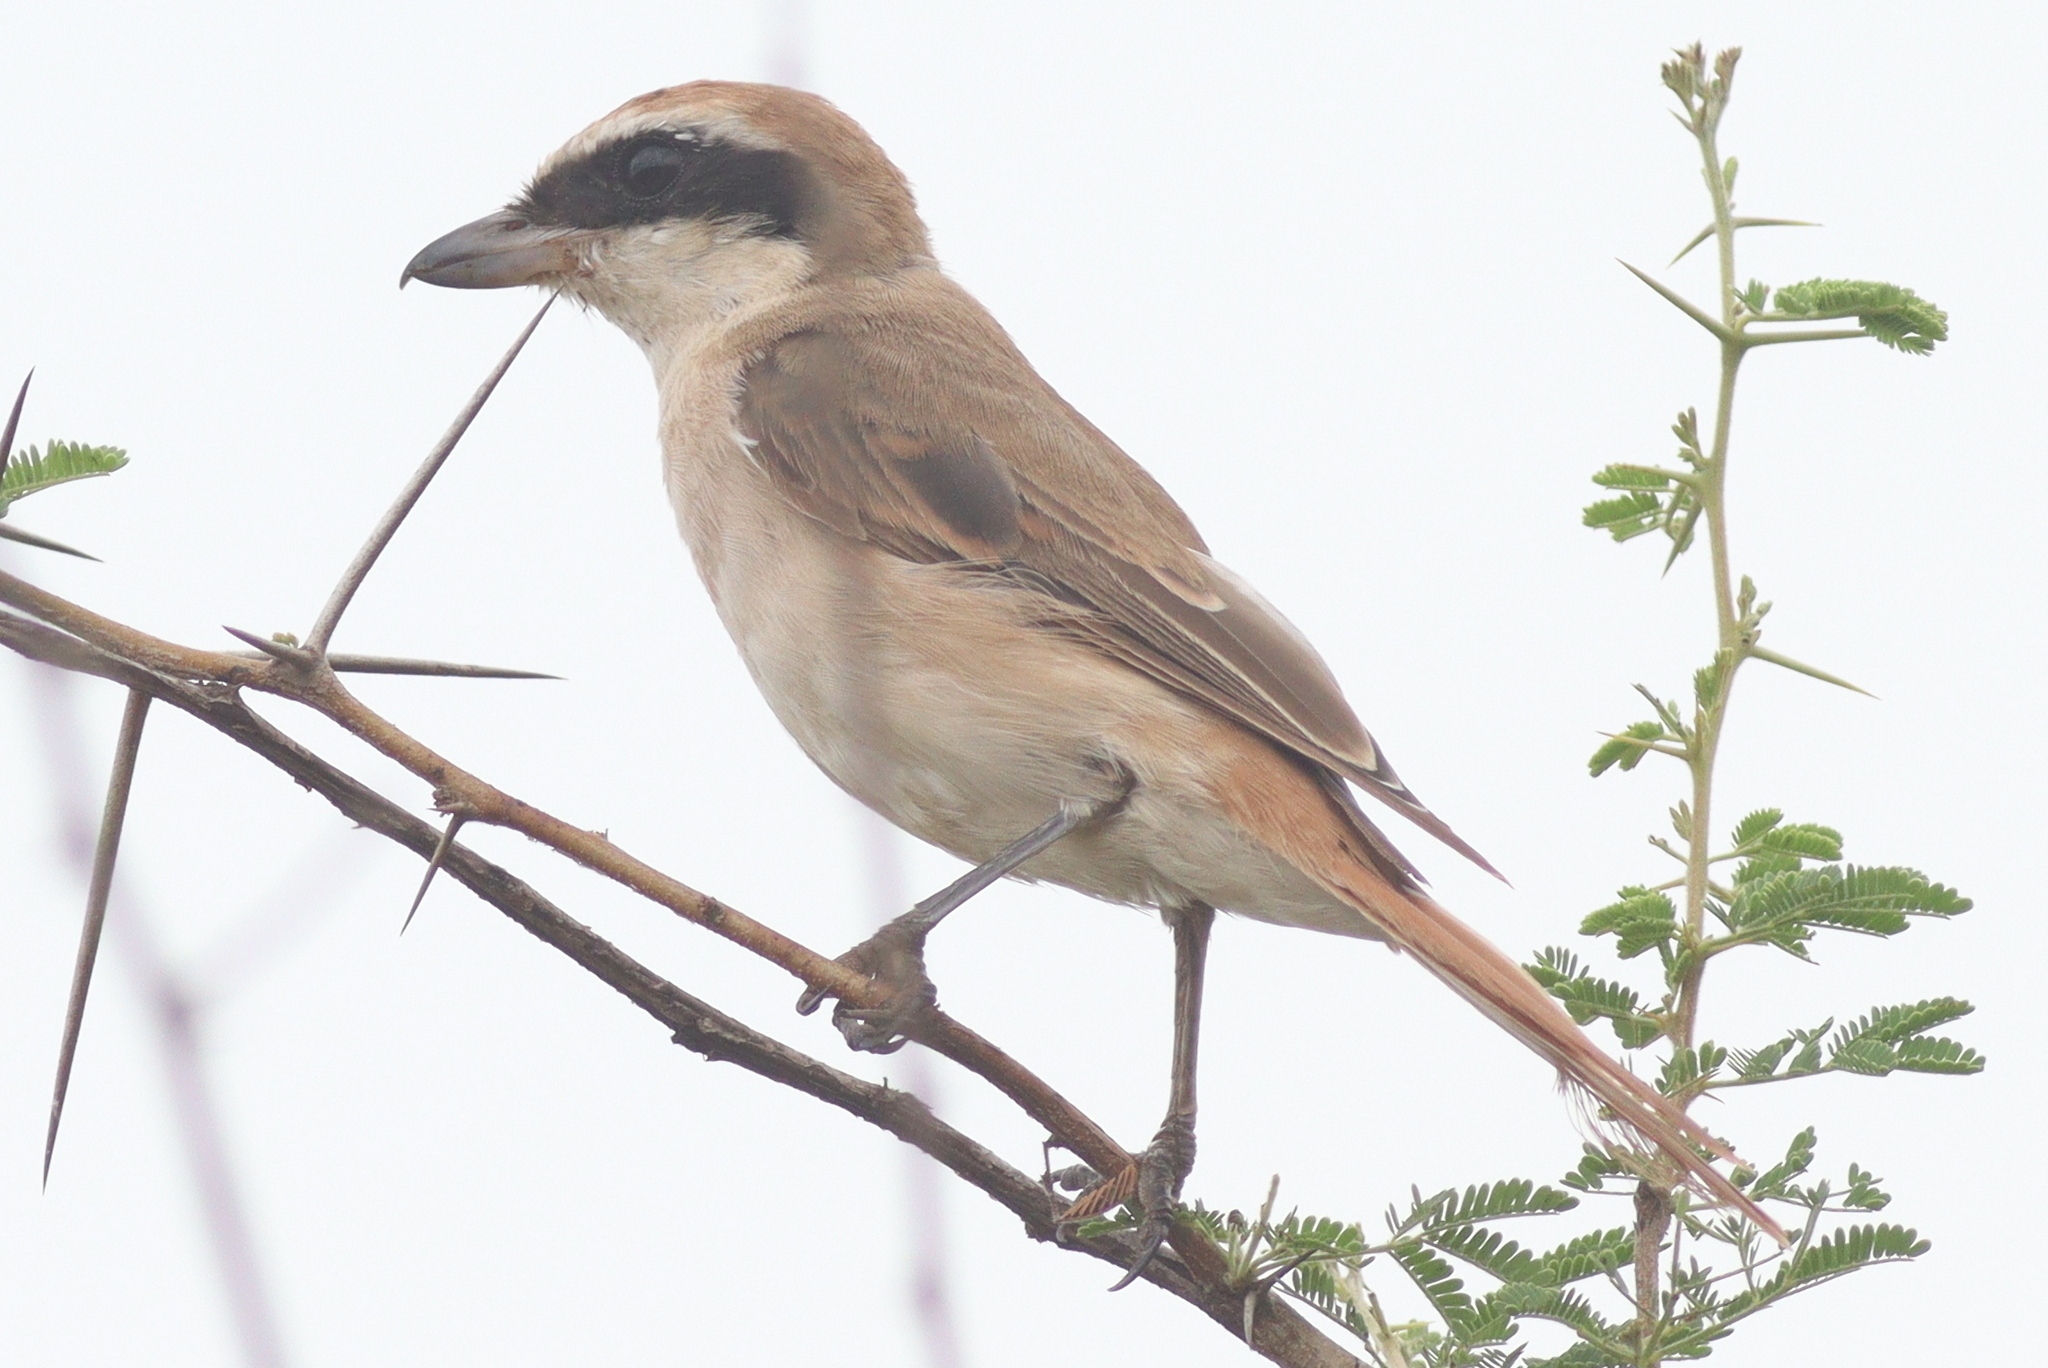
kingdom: Animalia
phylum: Chordata
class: Aves
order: Passeriformes
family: Laniidae
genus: Lanius
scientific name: Lanius phoenicuroides
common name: Red-tailed shrike
